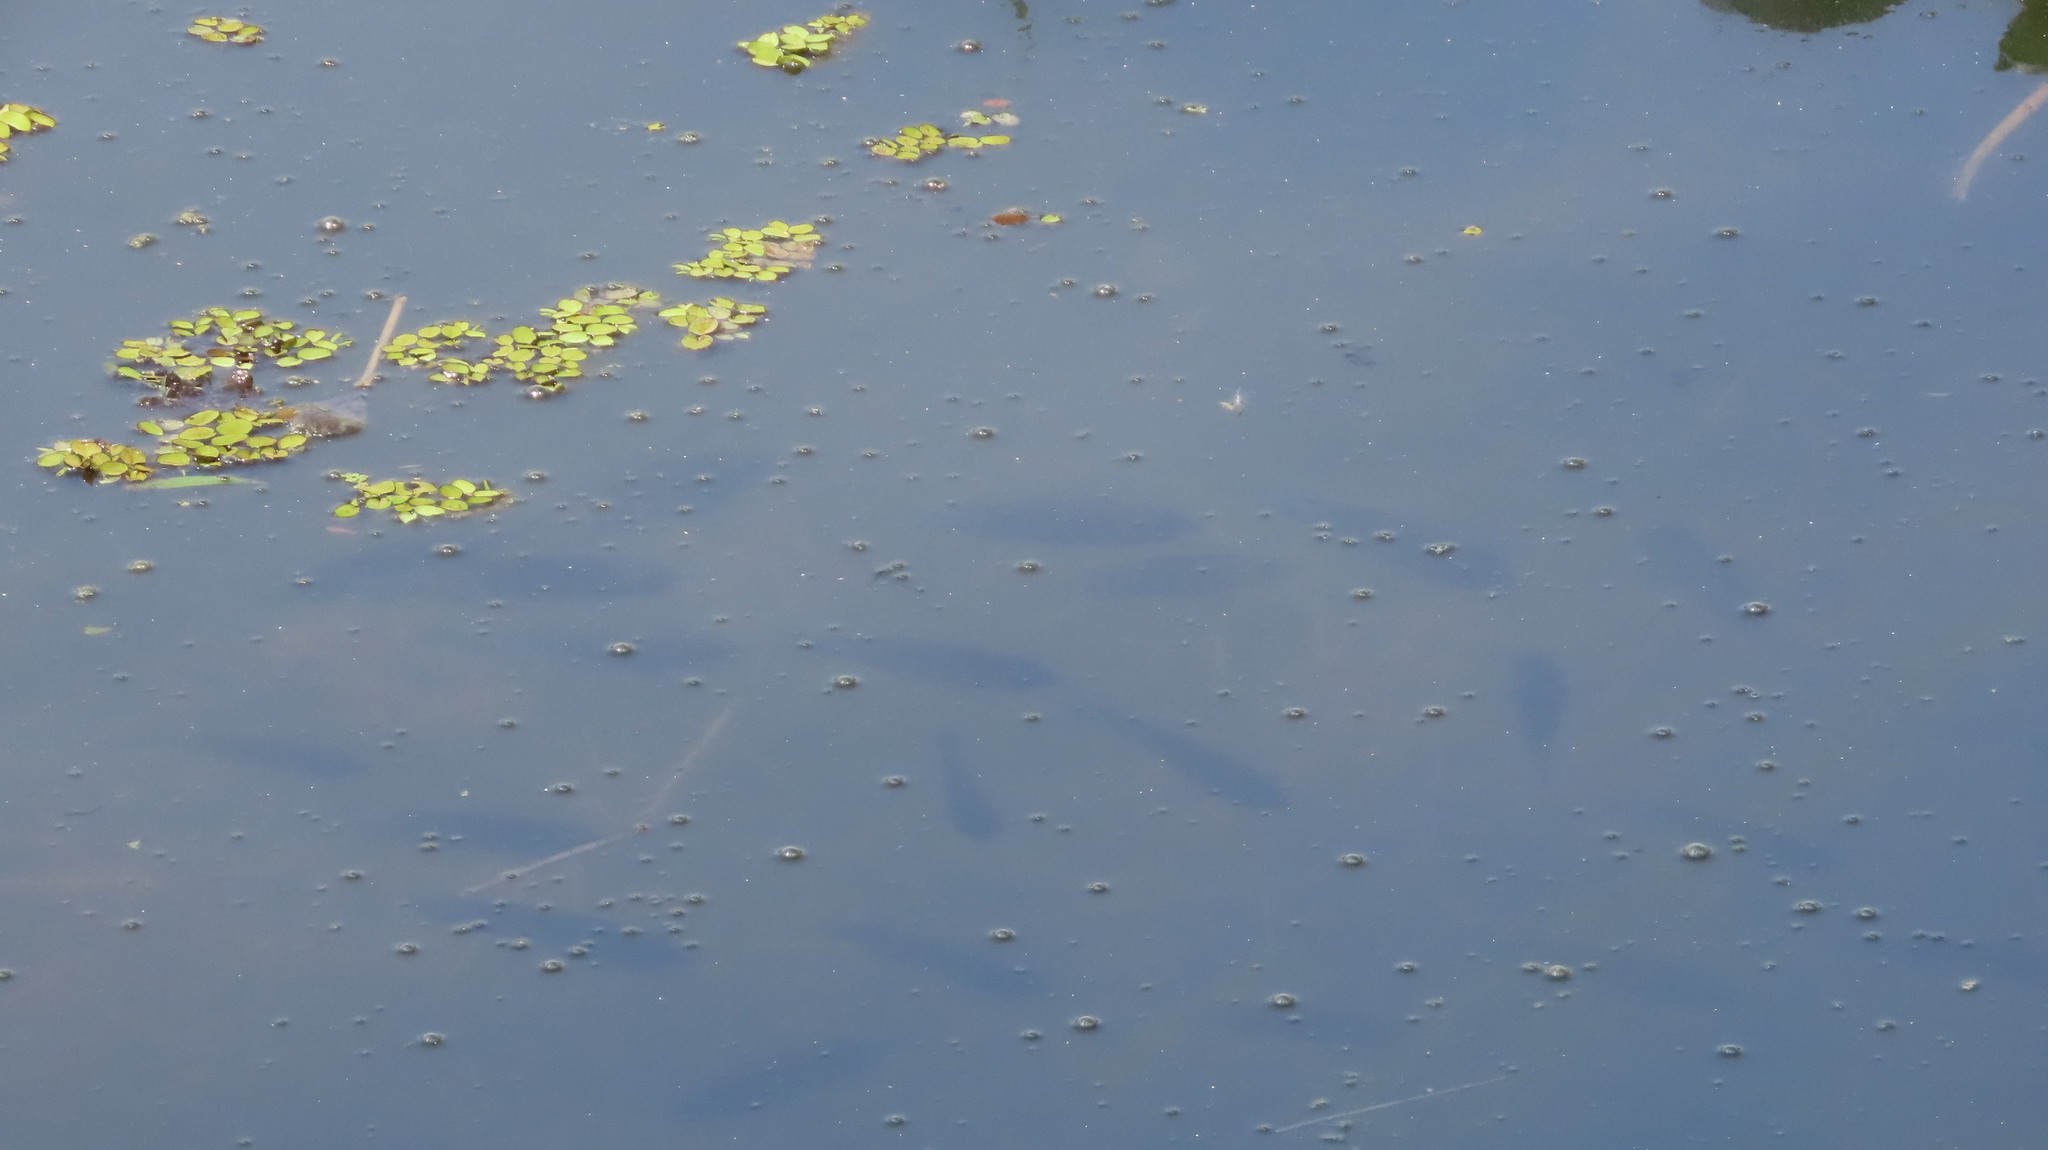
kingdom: Animalia
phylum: Chordata
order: Perciformes
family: Cichlidae
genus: Etroplus
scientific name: Etroplus suratensis
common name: Green chromide
